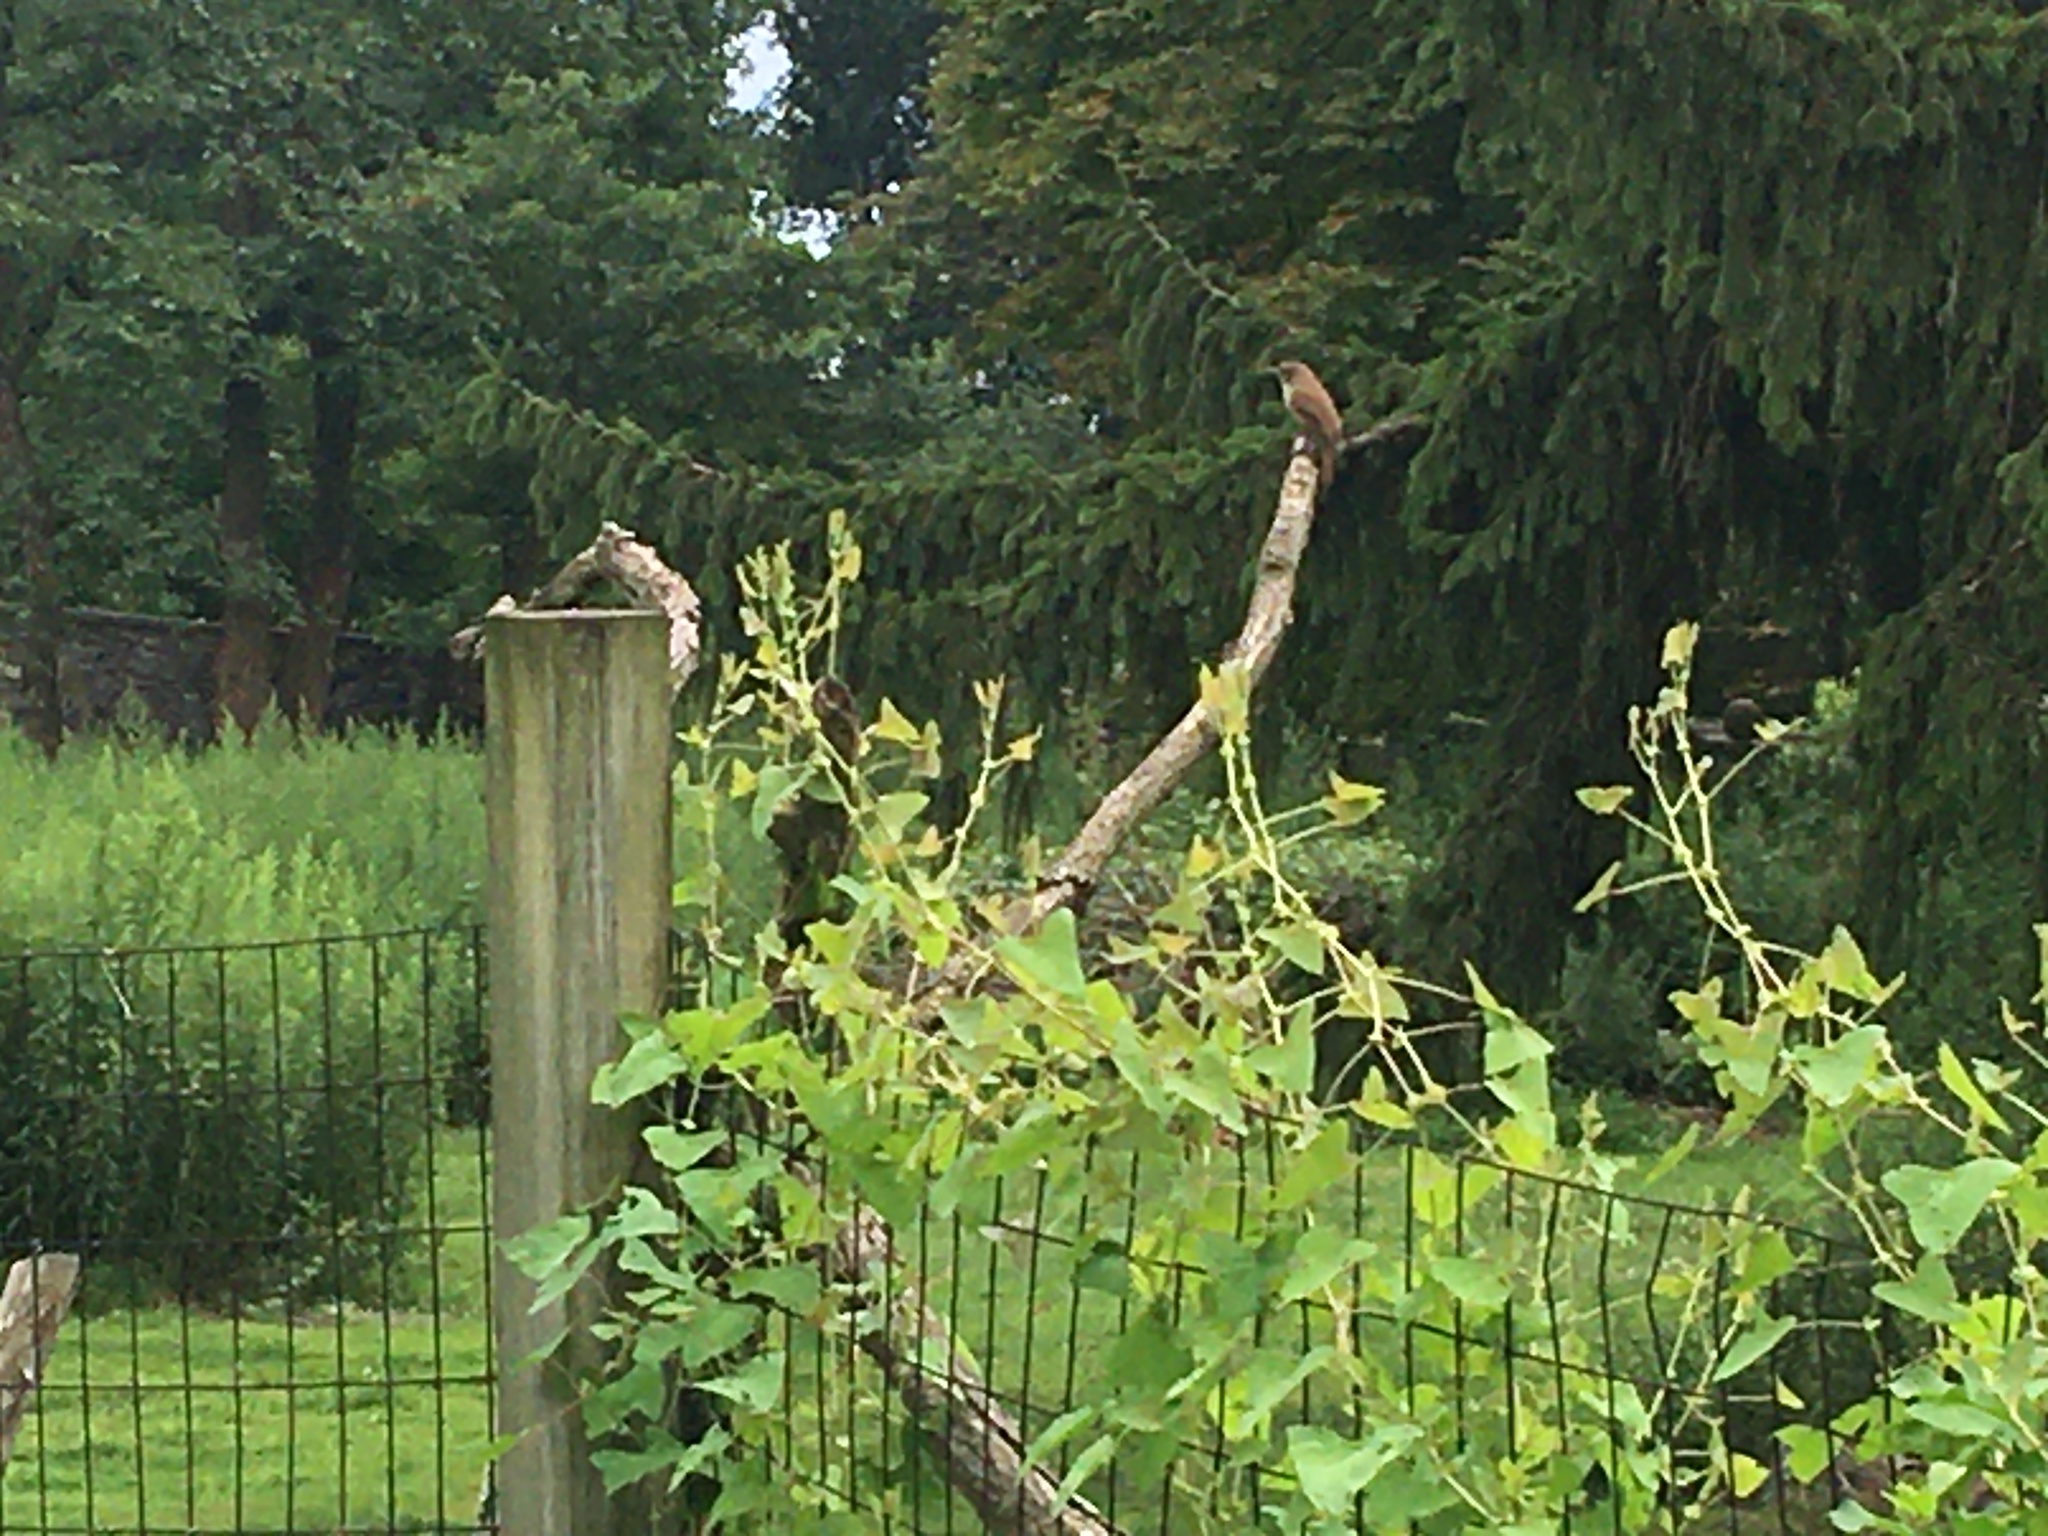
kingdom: Animalia
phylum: Chordata
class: Aves
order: Passeriformes
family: Troglodytidae
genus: Troglodytes
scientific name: Troglodytes aedon
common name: House wren
